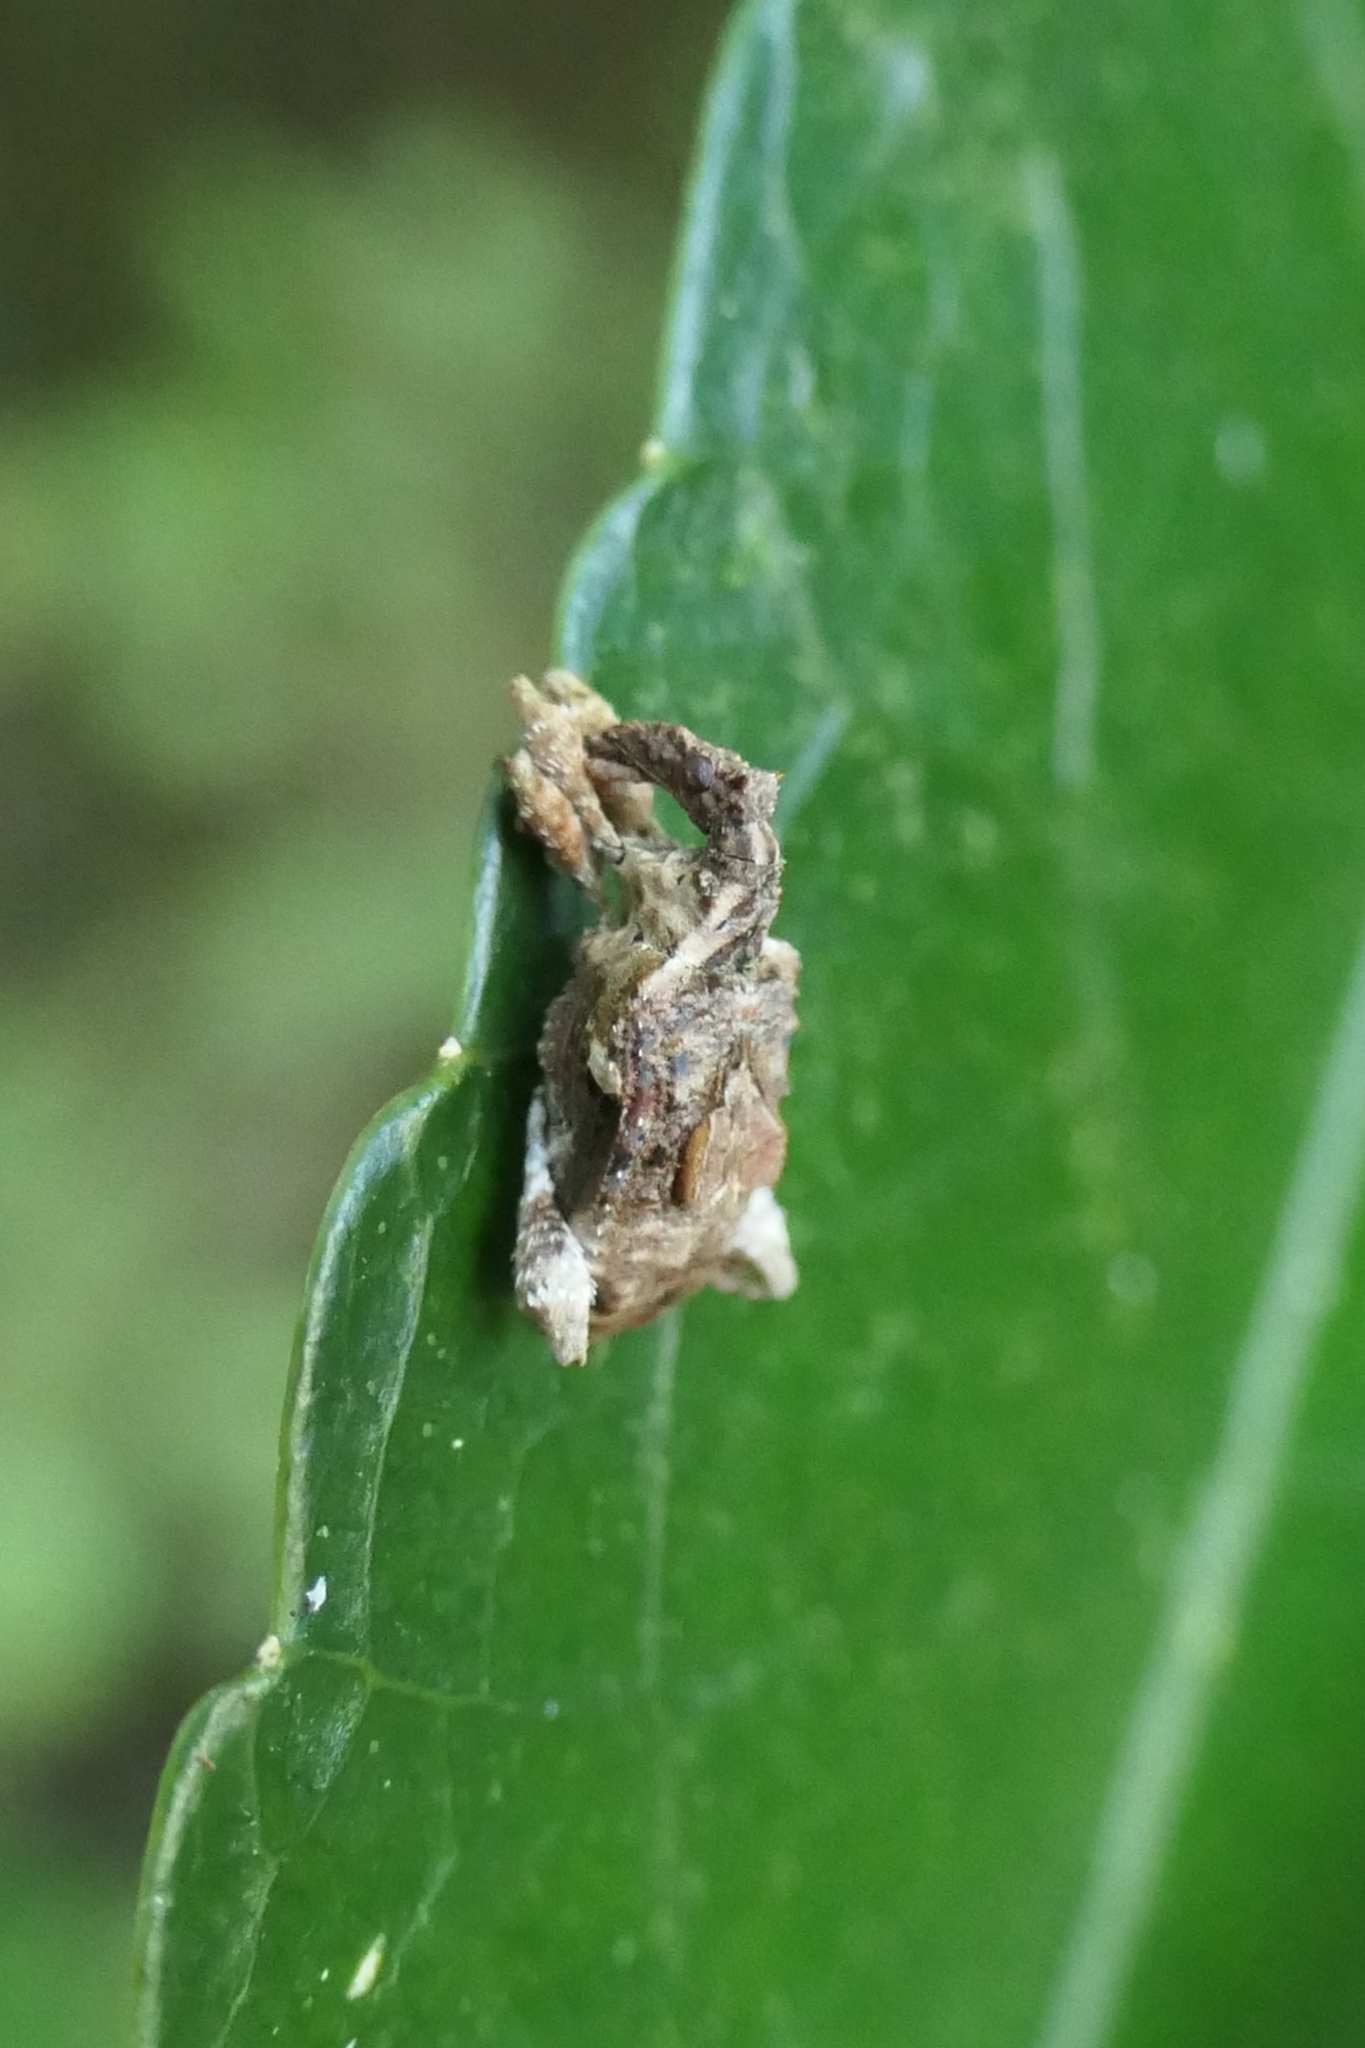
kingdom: Animalia
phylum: Arthropoda
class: Insecta
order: Coleoptera
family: Curculionidae
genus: Stephanorhynchus
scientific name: Stephanorhynchus curvipes
